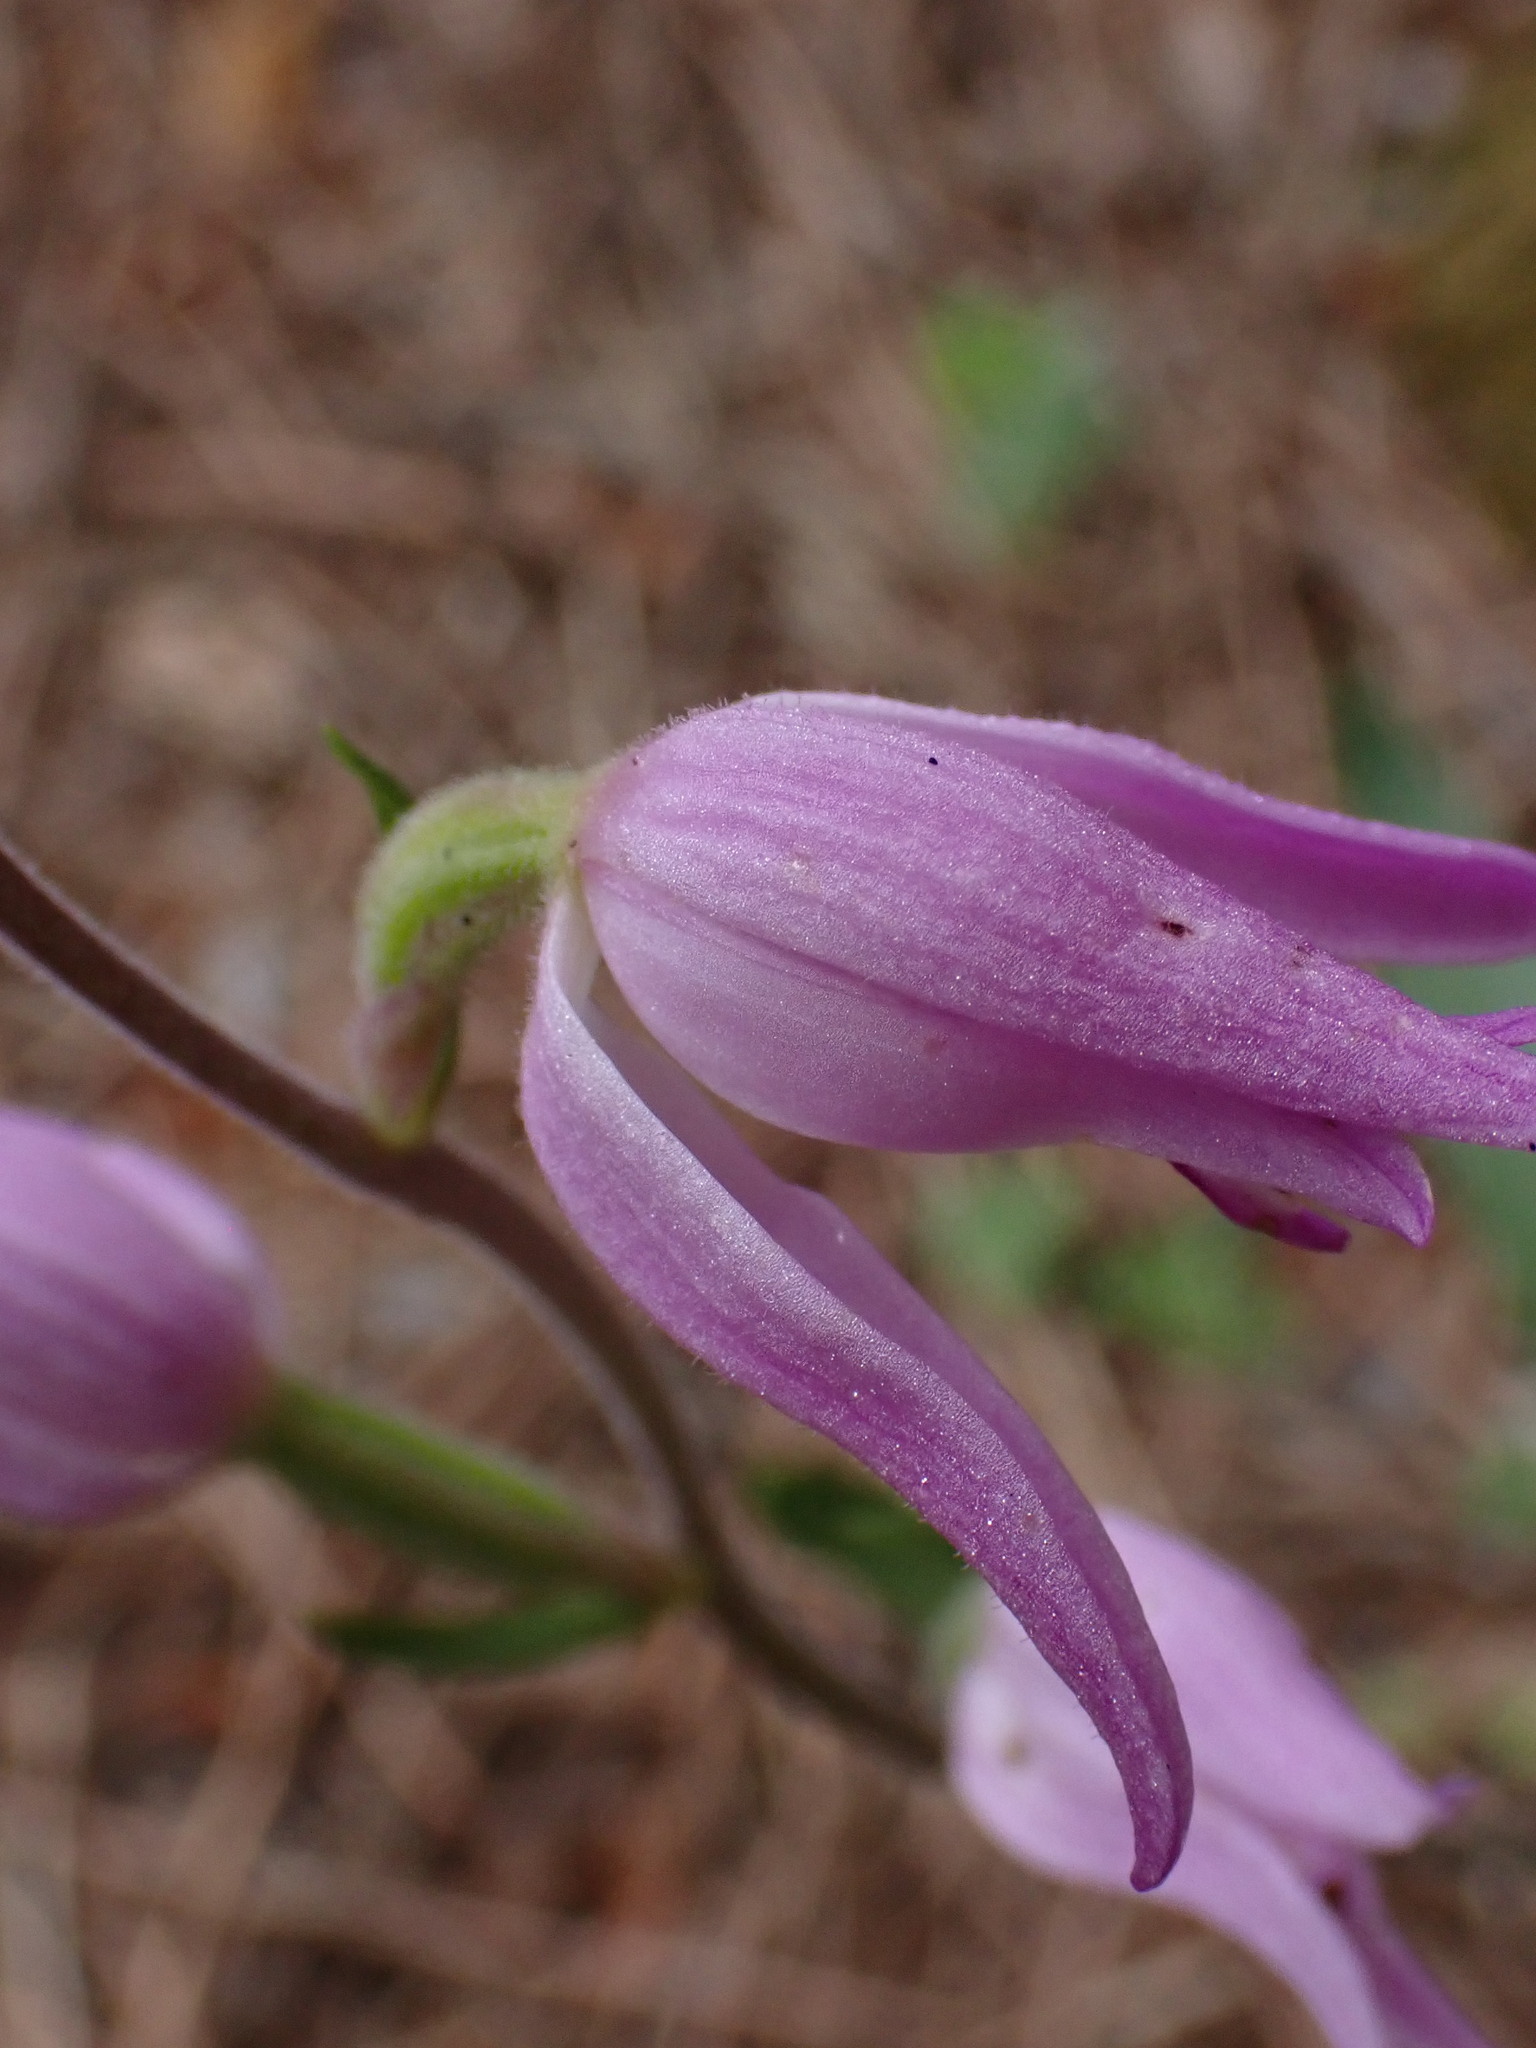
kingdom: Plantae
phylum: Tracheophyta
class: Liliopsida
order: Asparagales
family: Orchidaceae
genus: Cephalanthera
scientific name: Cephalanthera rubra
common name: Red helleborine
